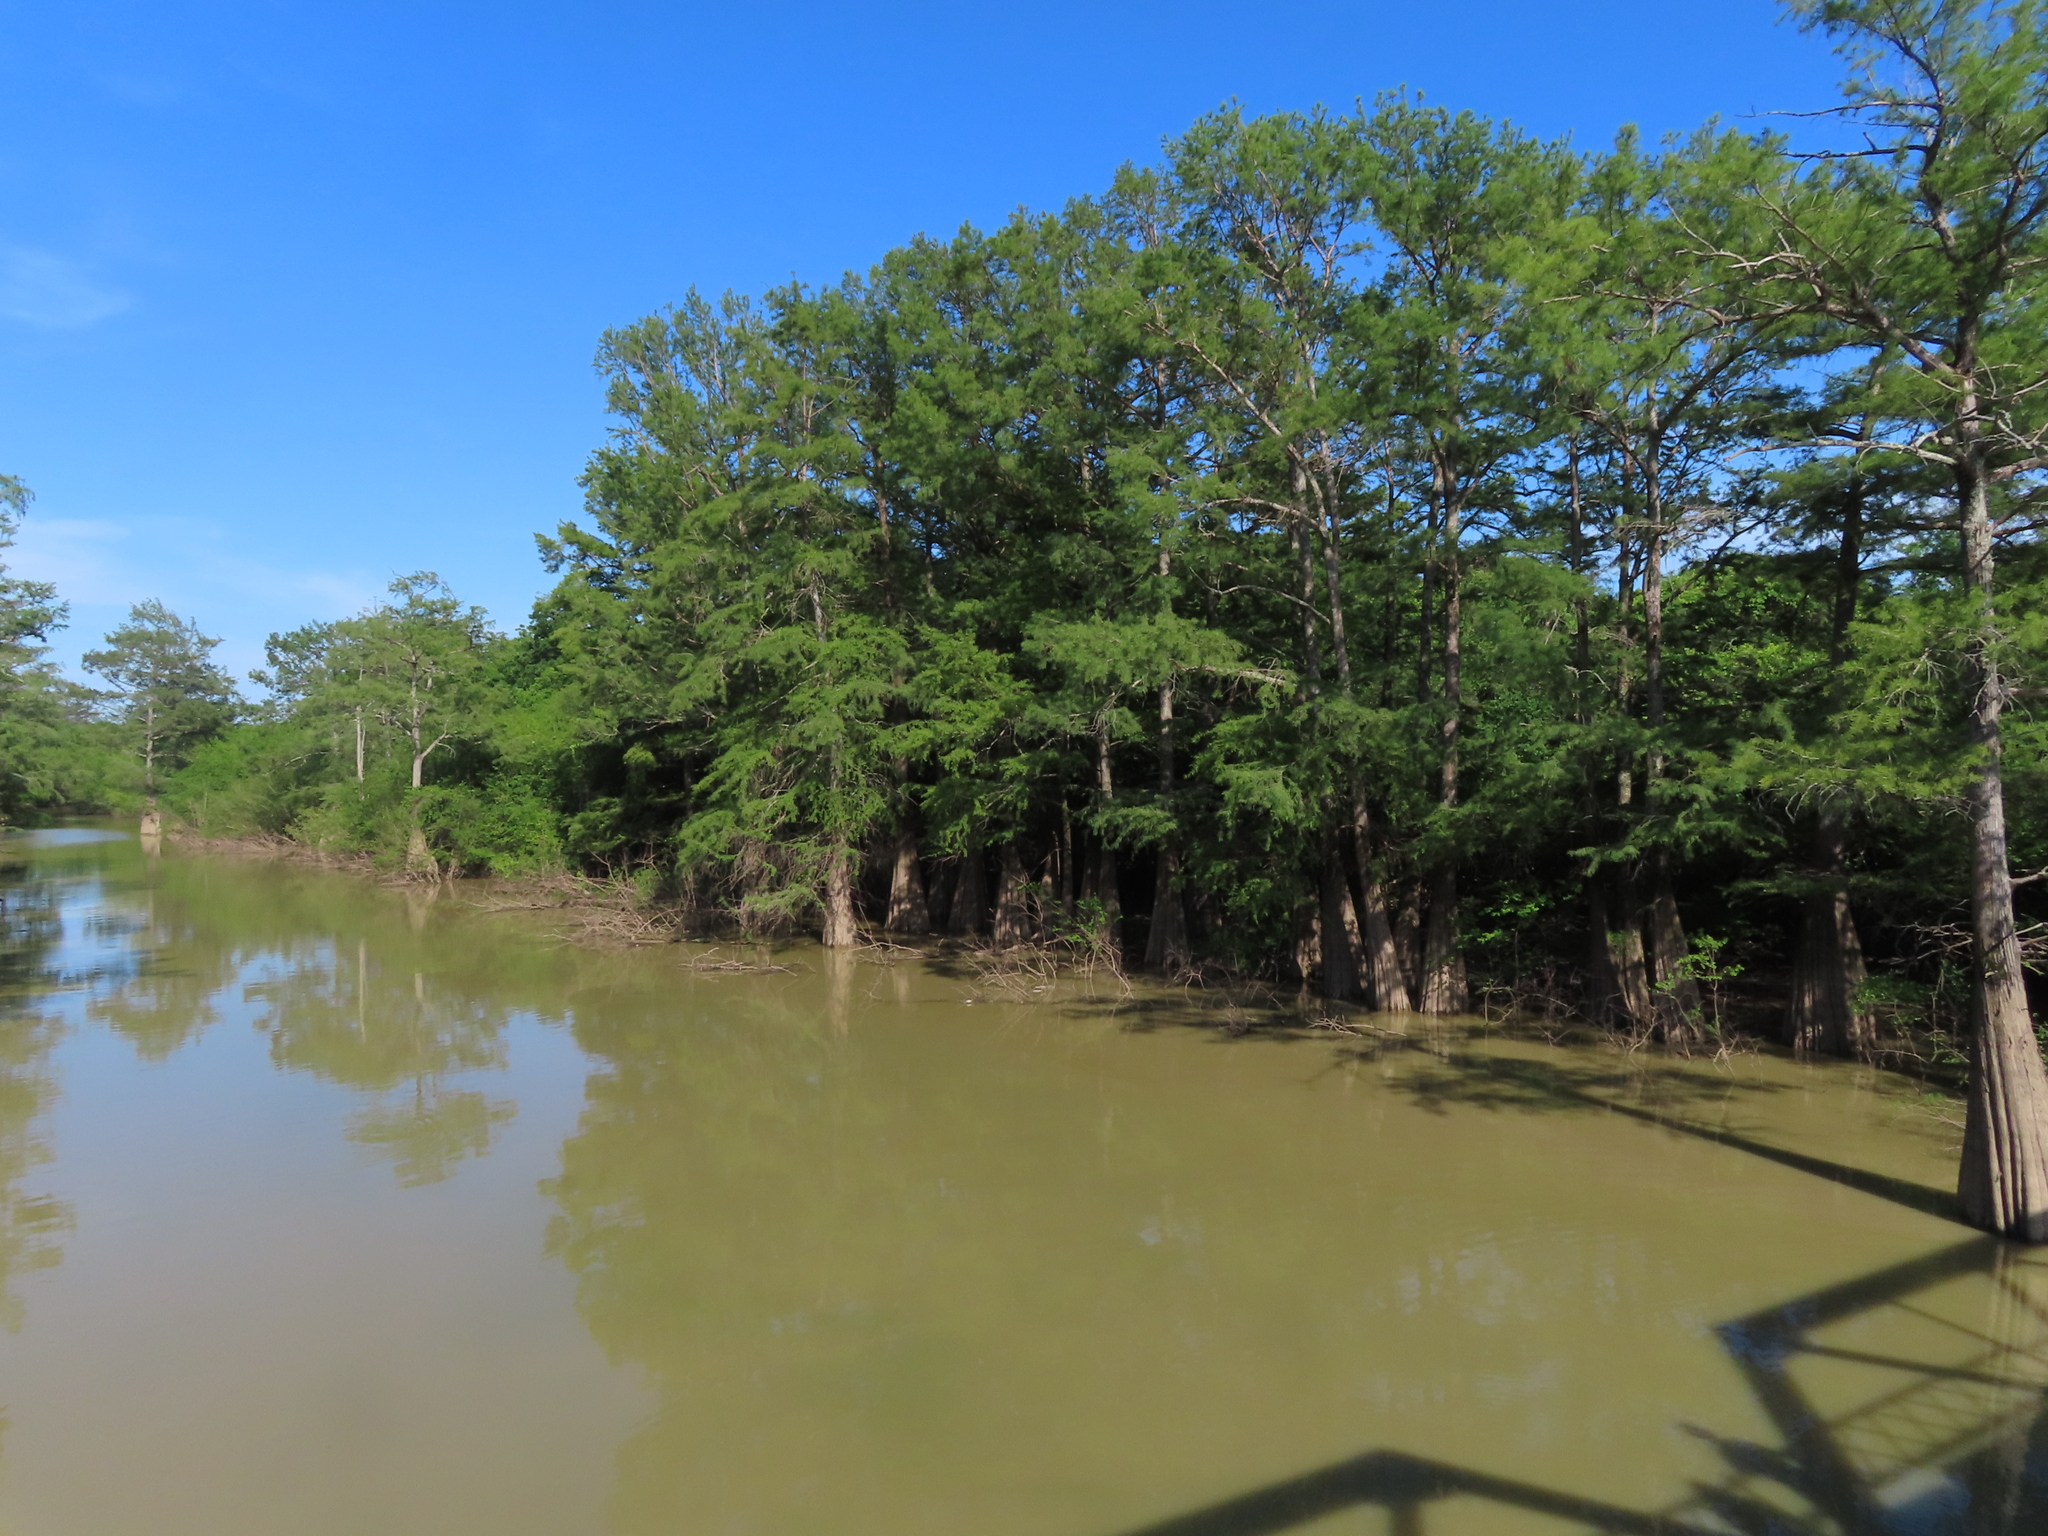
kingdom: Plantae
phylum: Tracheophyta
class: Pinopsida
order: Pinales
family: Cupressaceae
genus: Taxodium
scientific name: Taxodium distichum
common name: Bald cypress
